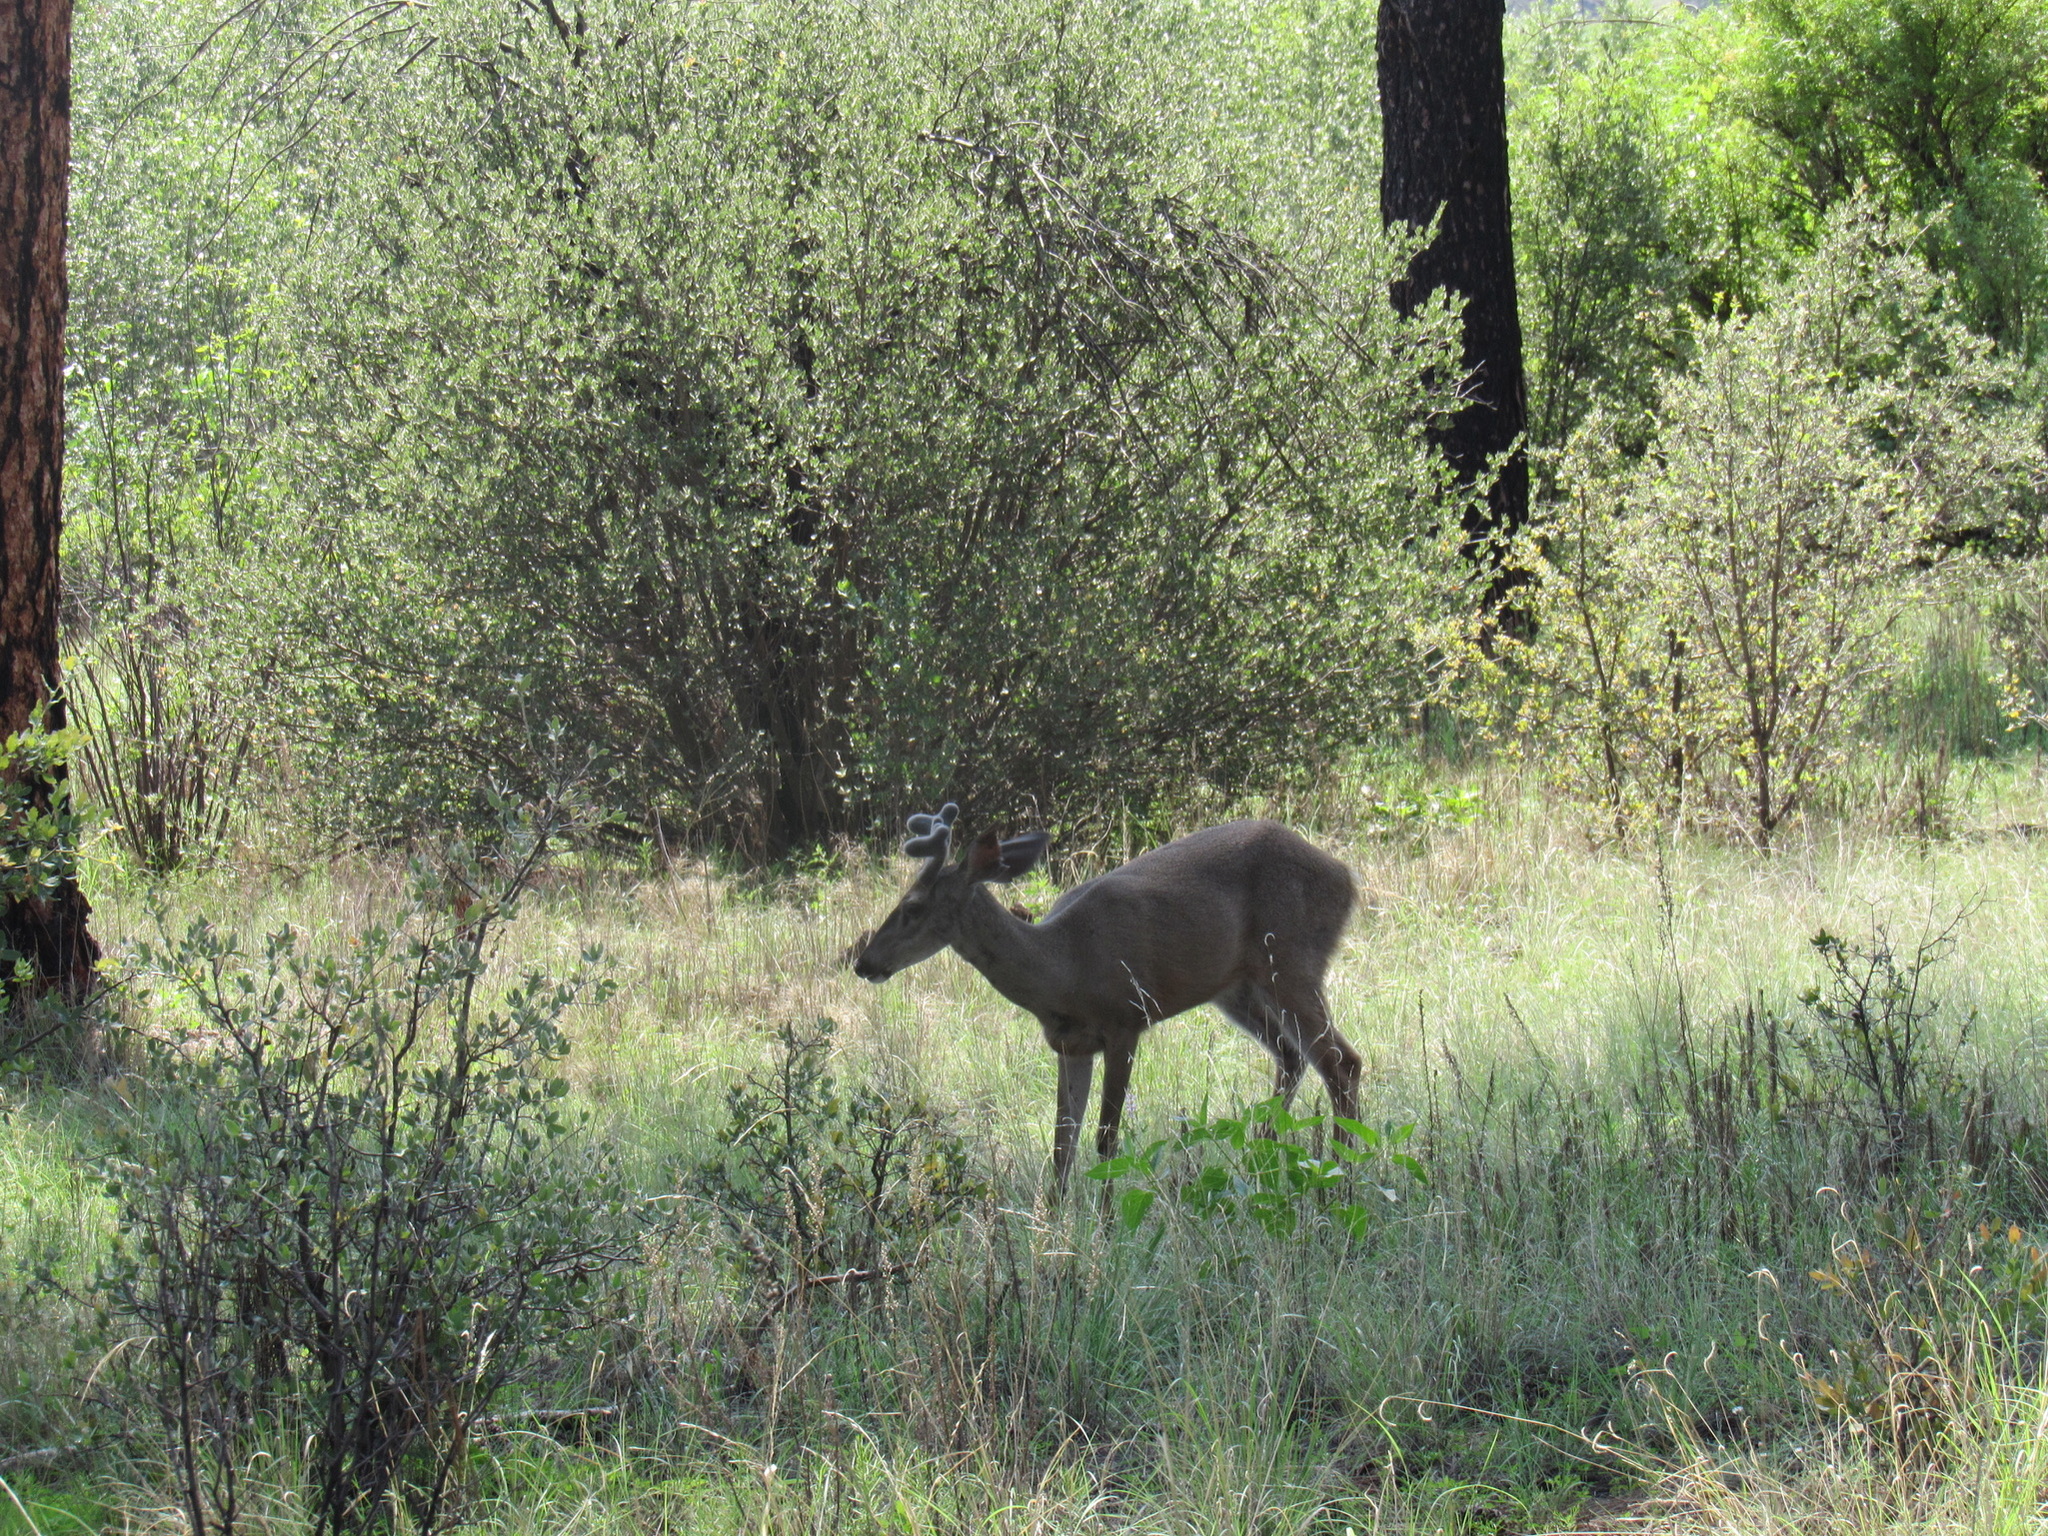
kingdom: Animalia
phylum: Chordata
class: Mammalia
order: Artiodactyla
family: Cervidae
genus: Odocoileus
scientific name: Odocoileus hemionus
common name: Mule deer
